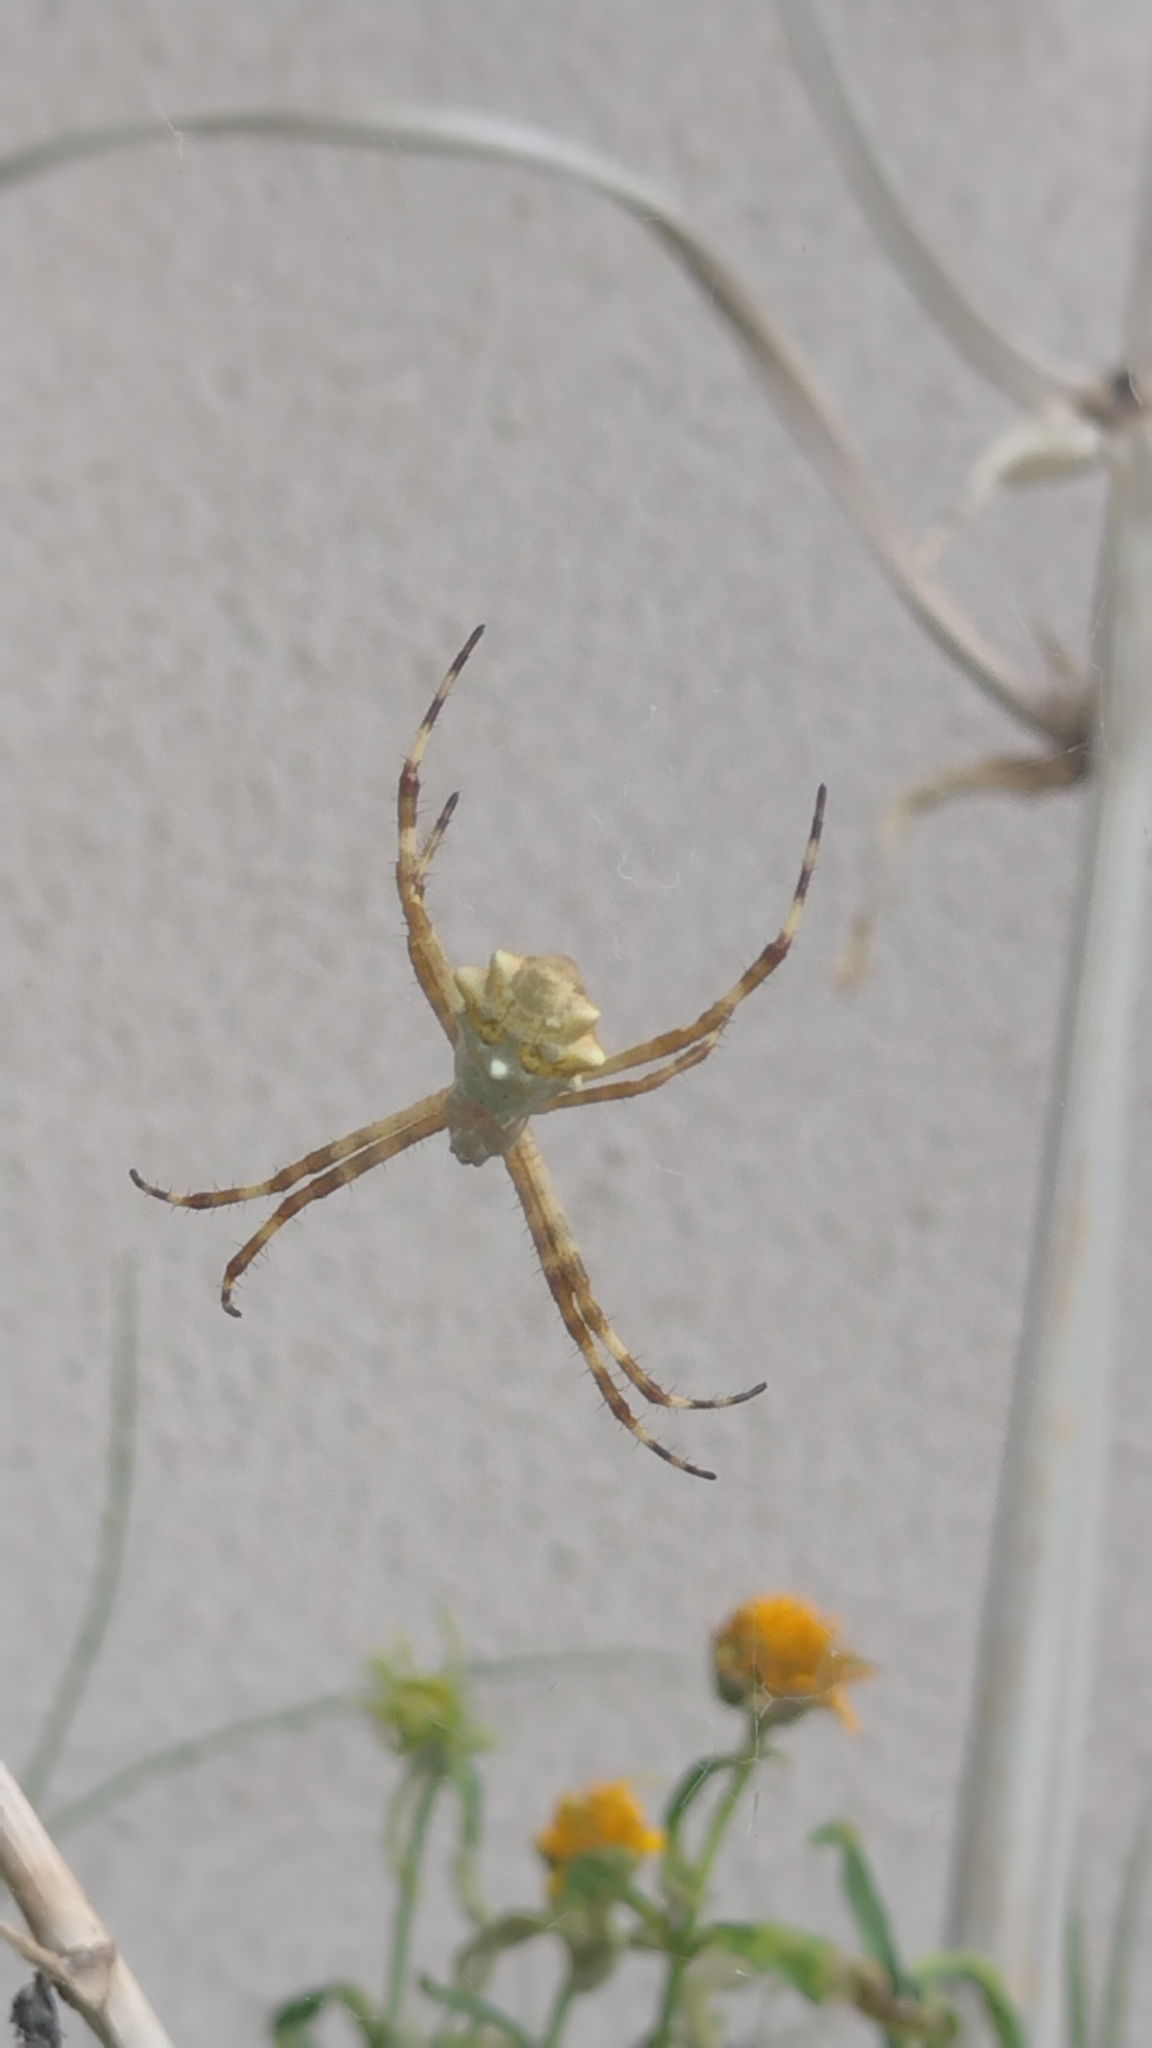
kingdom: Animalia
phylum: Arthropoda
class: Arachnida
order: Araneae
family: Araneidae
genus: Argiope
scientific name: Argiope argentata
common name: Orb weavers
